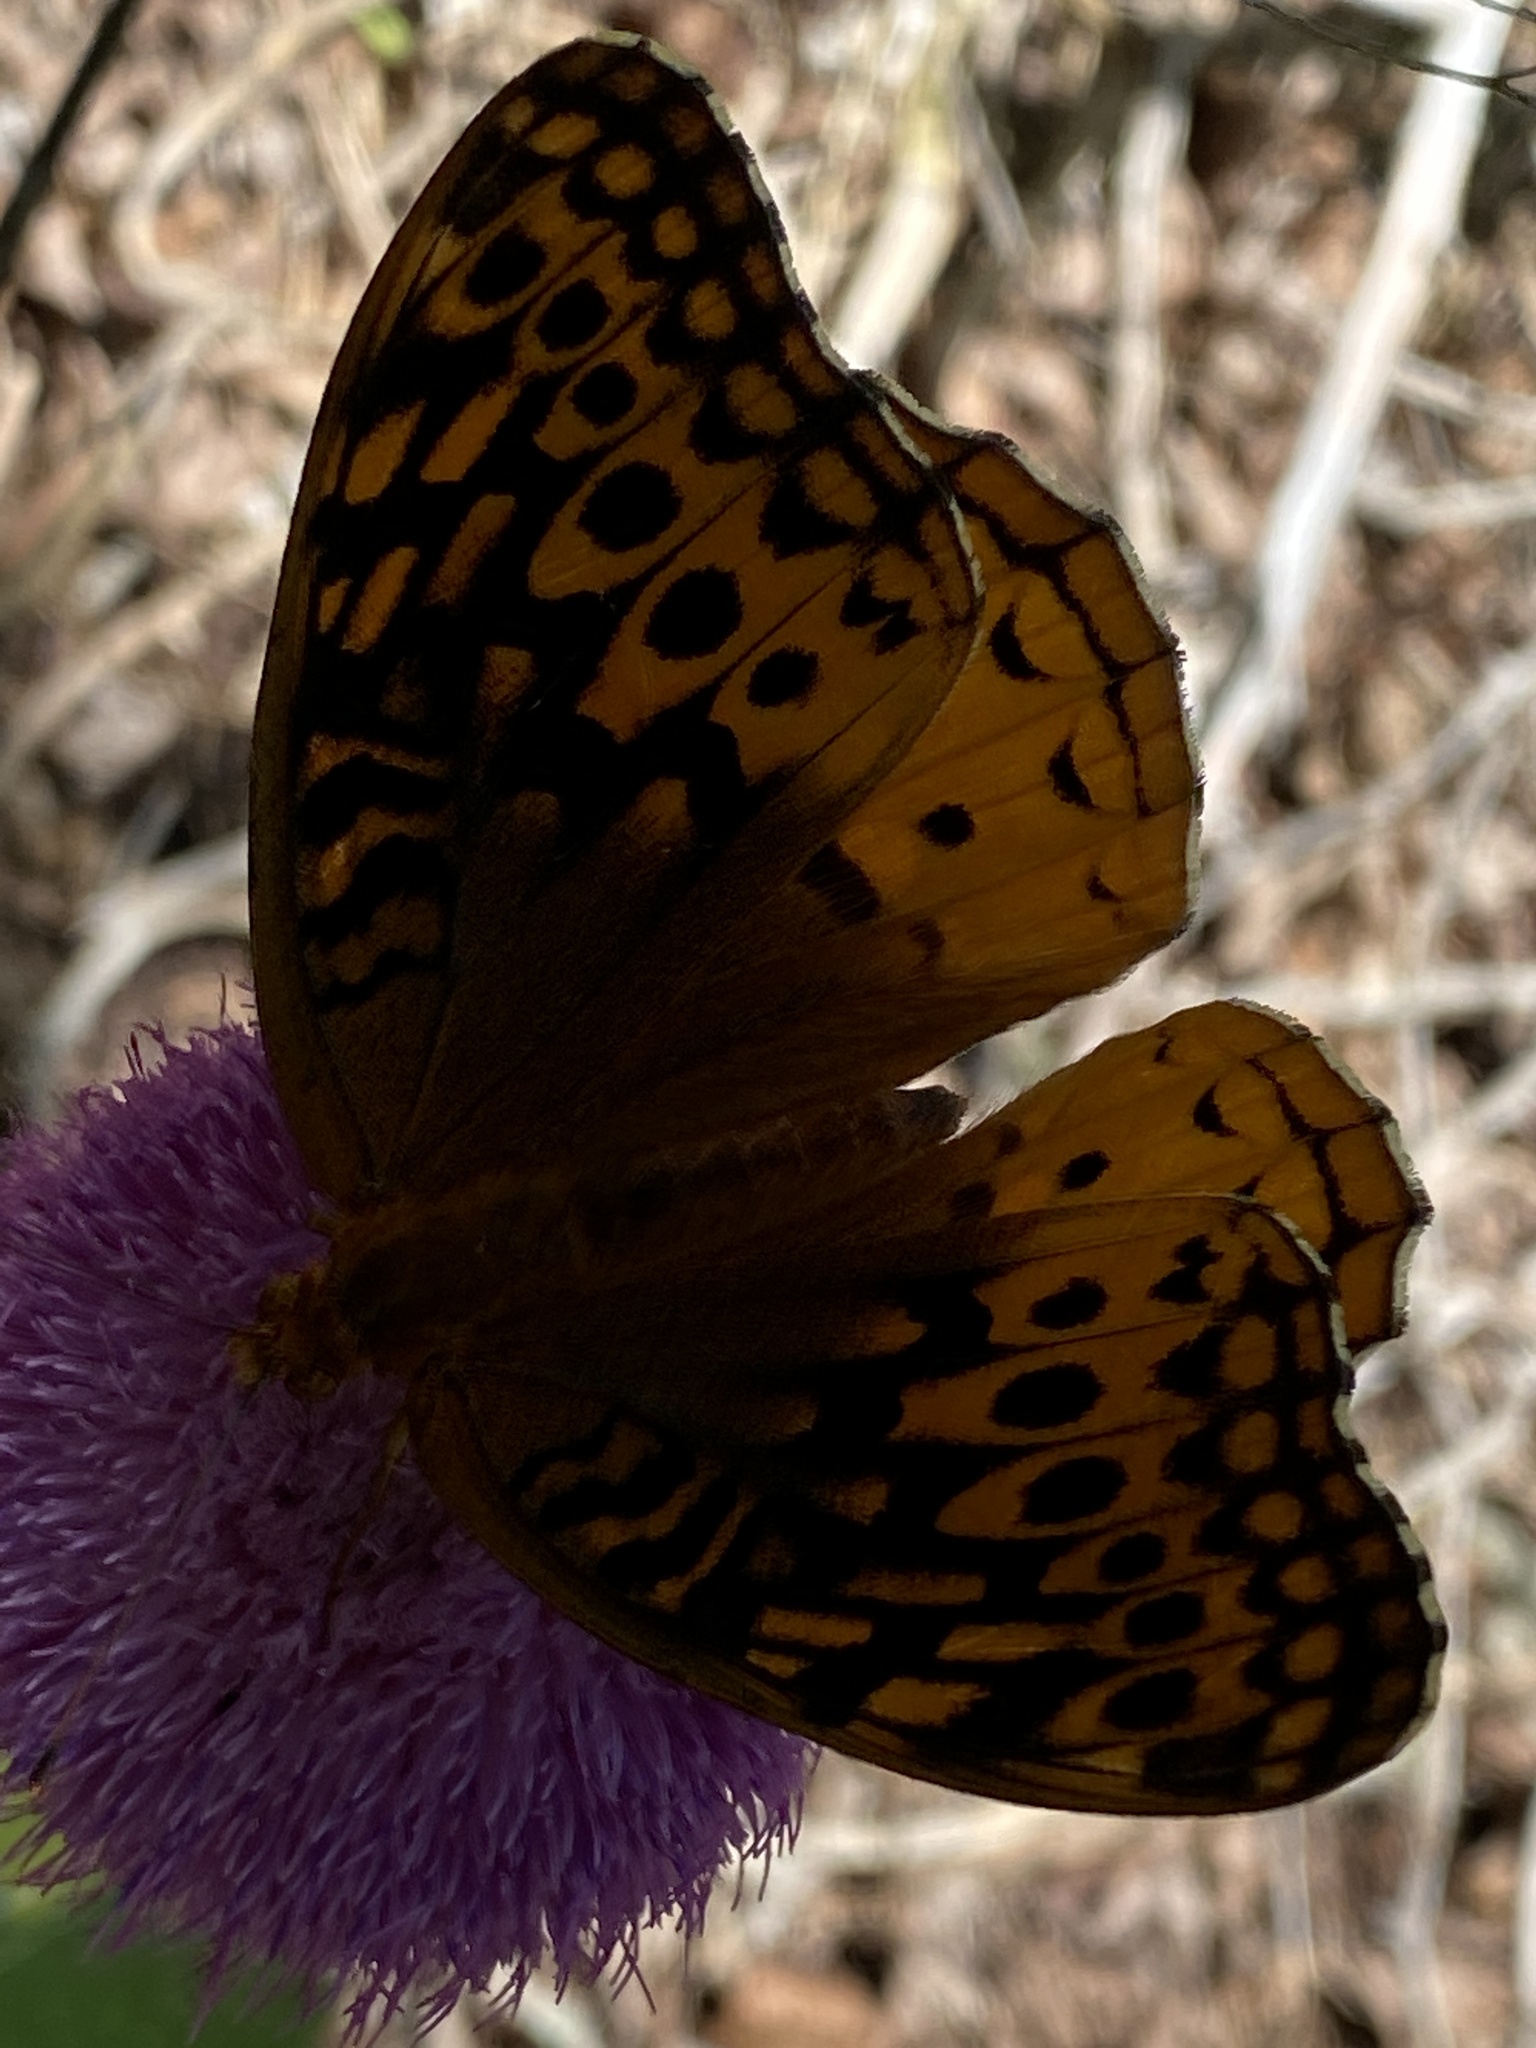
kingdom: Animalia
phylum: Arthropoda
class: Insecta
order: Lepidoptera
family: Nymphalidae
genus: Speyeria
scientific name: Speyeria cybele
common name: Great spangled fritillary
